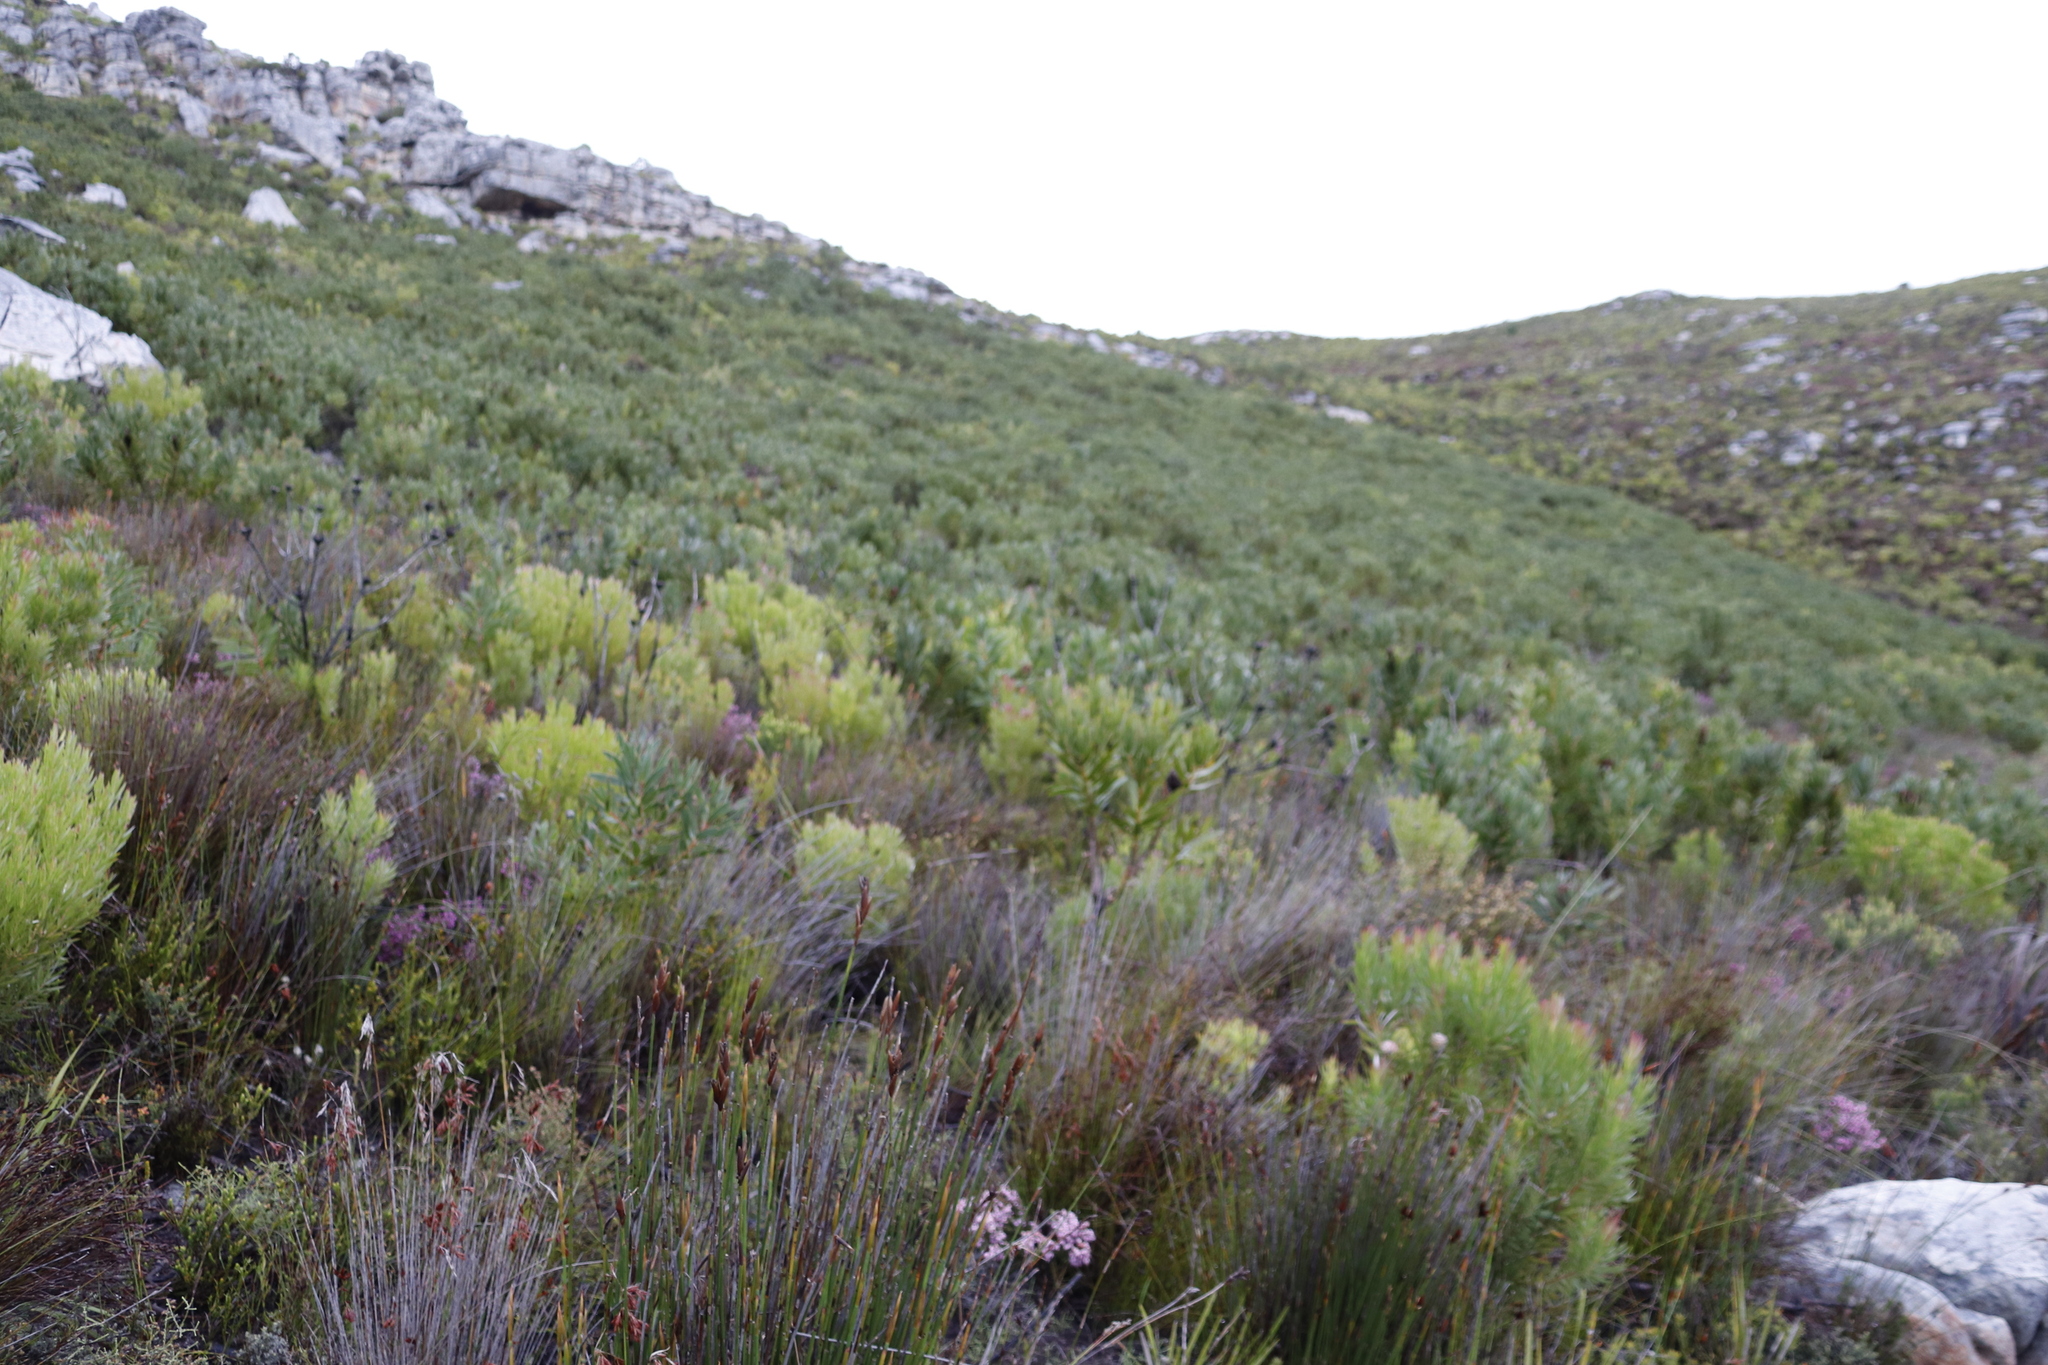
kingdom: Plantae
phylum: Tracheophyta
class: Magnoliopsida
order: Proteales
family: Proteaceae
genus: Protea
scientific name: Protea lepidocarpodendron
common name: Black-bearded protea
